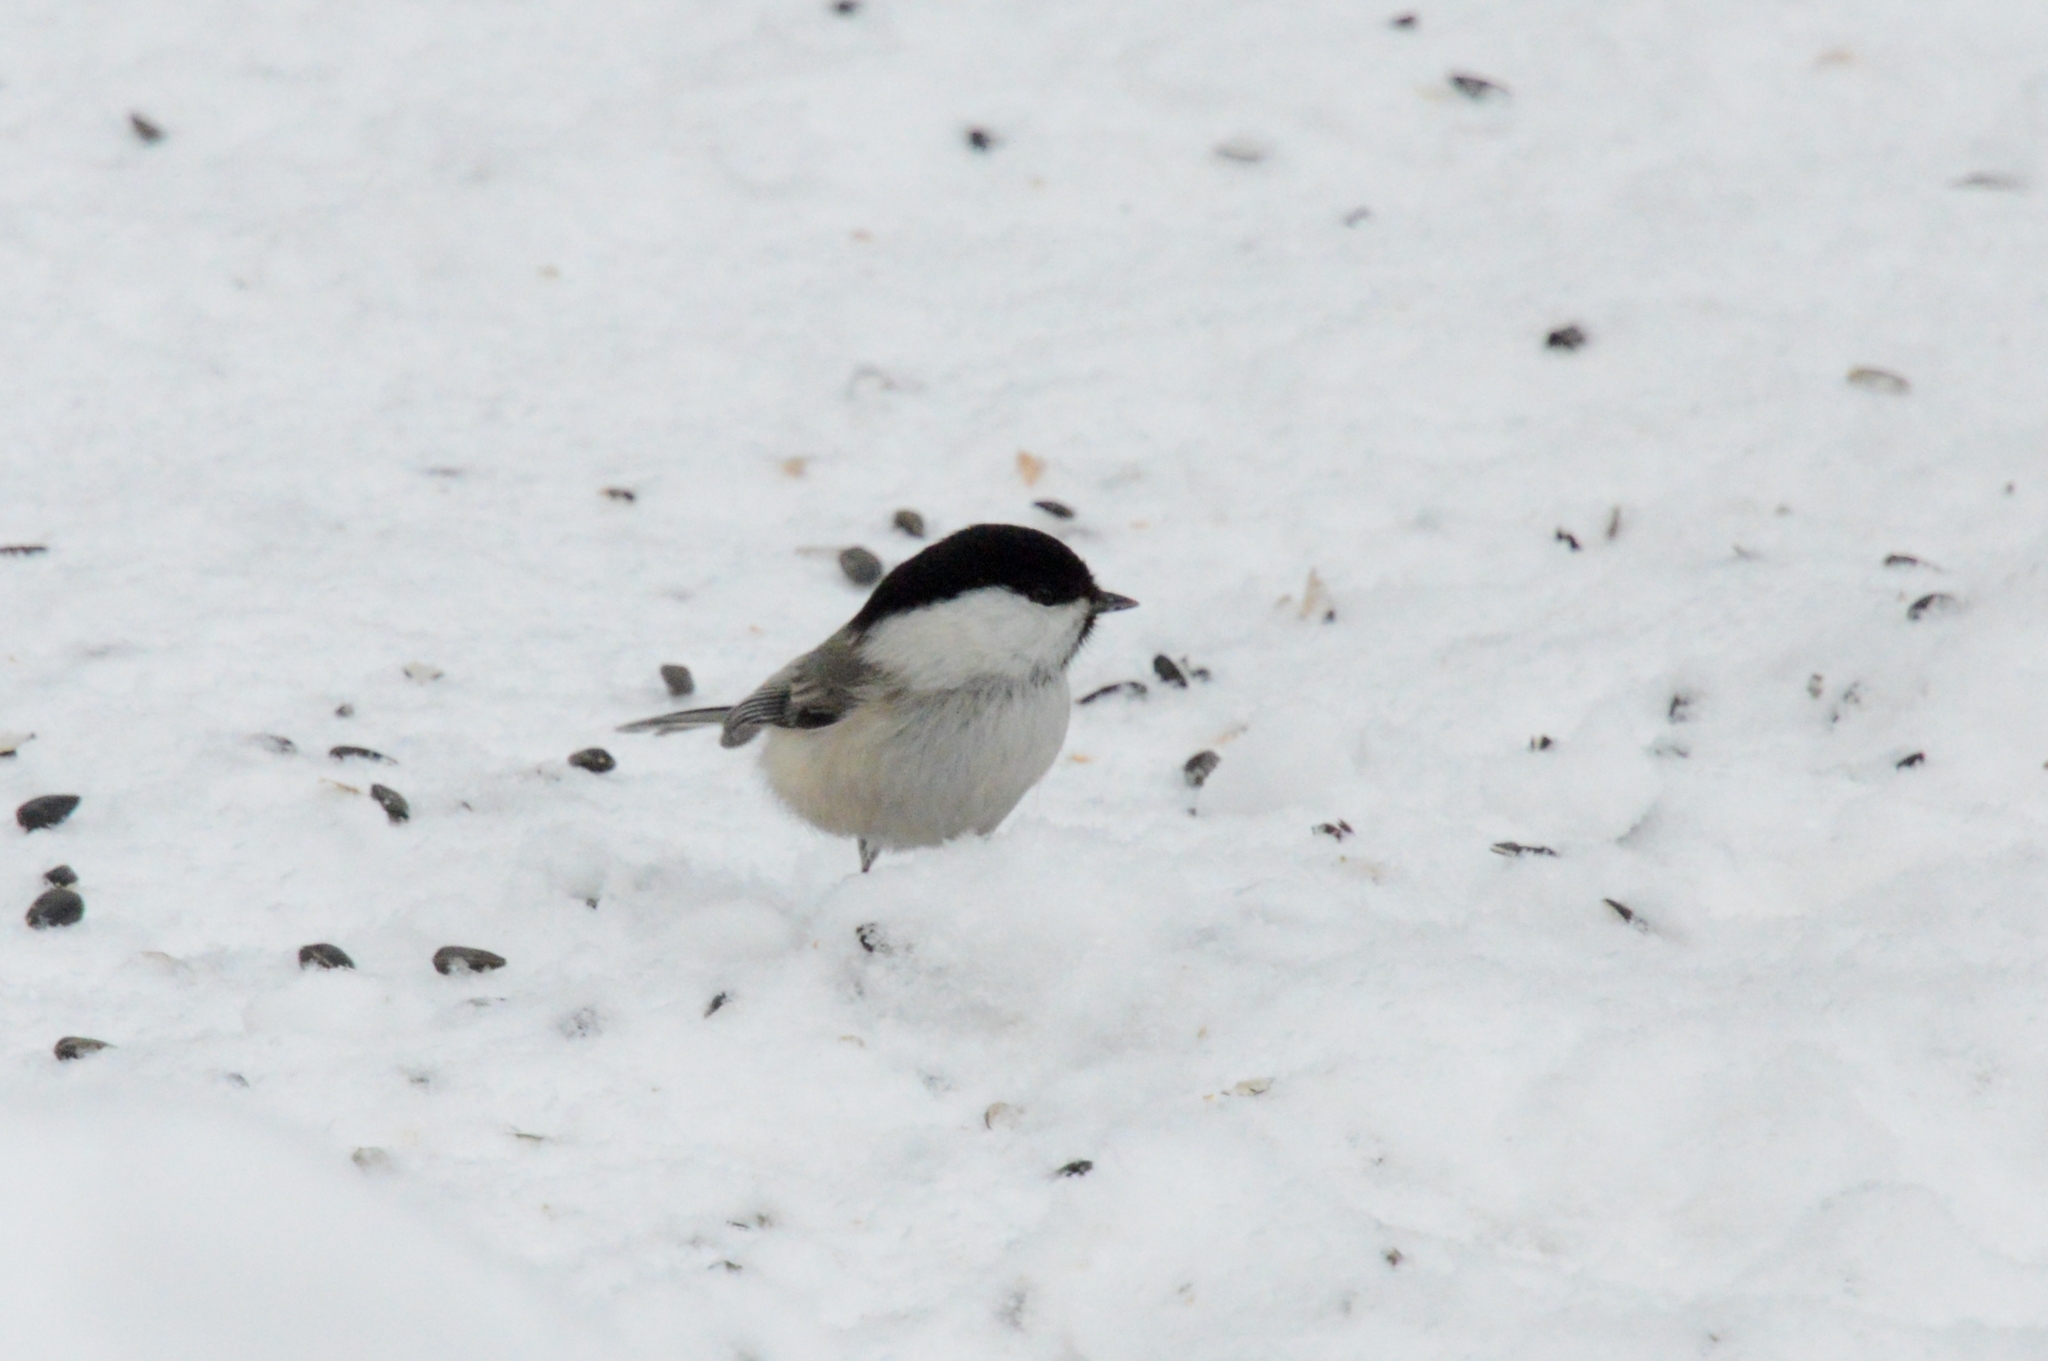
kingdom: Animalia
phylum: Chordata
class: Aves
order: Passeriformes
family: Paridae
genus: Poecile
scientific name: Poecile montanus
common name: Willow tit
